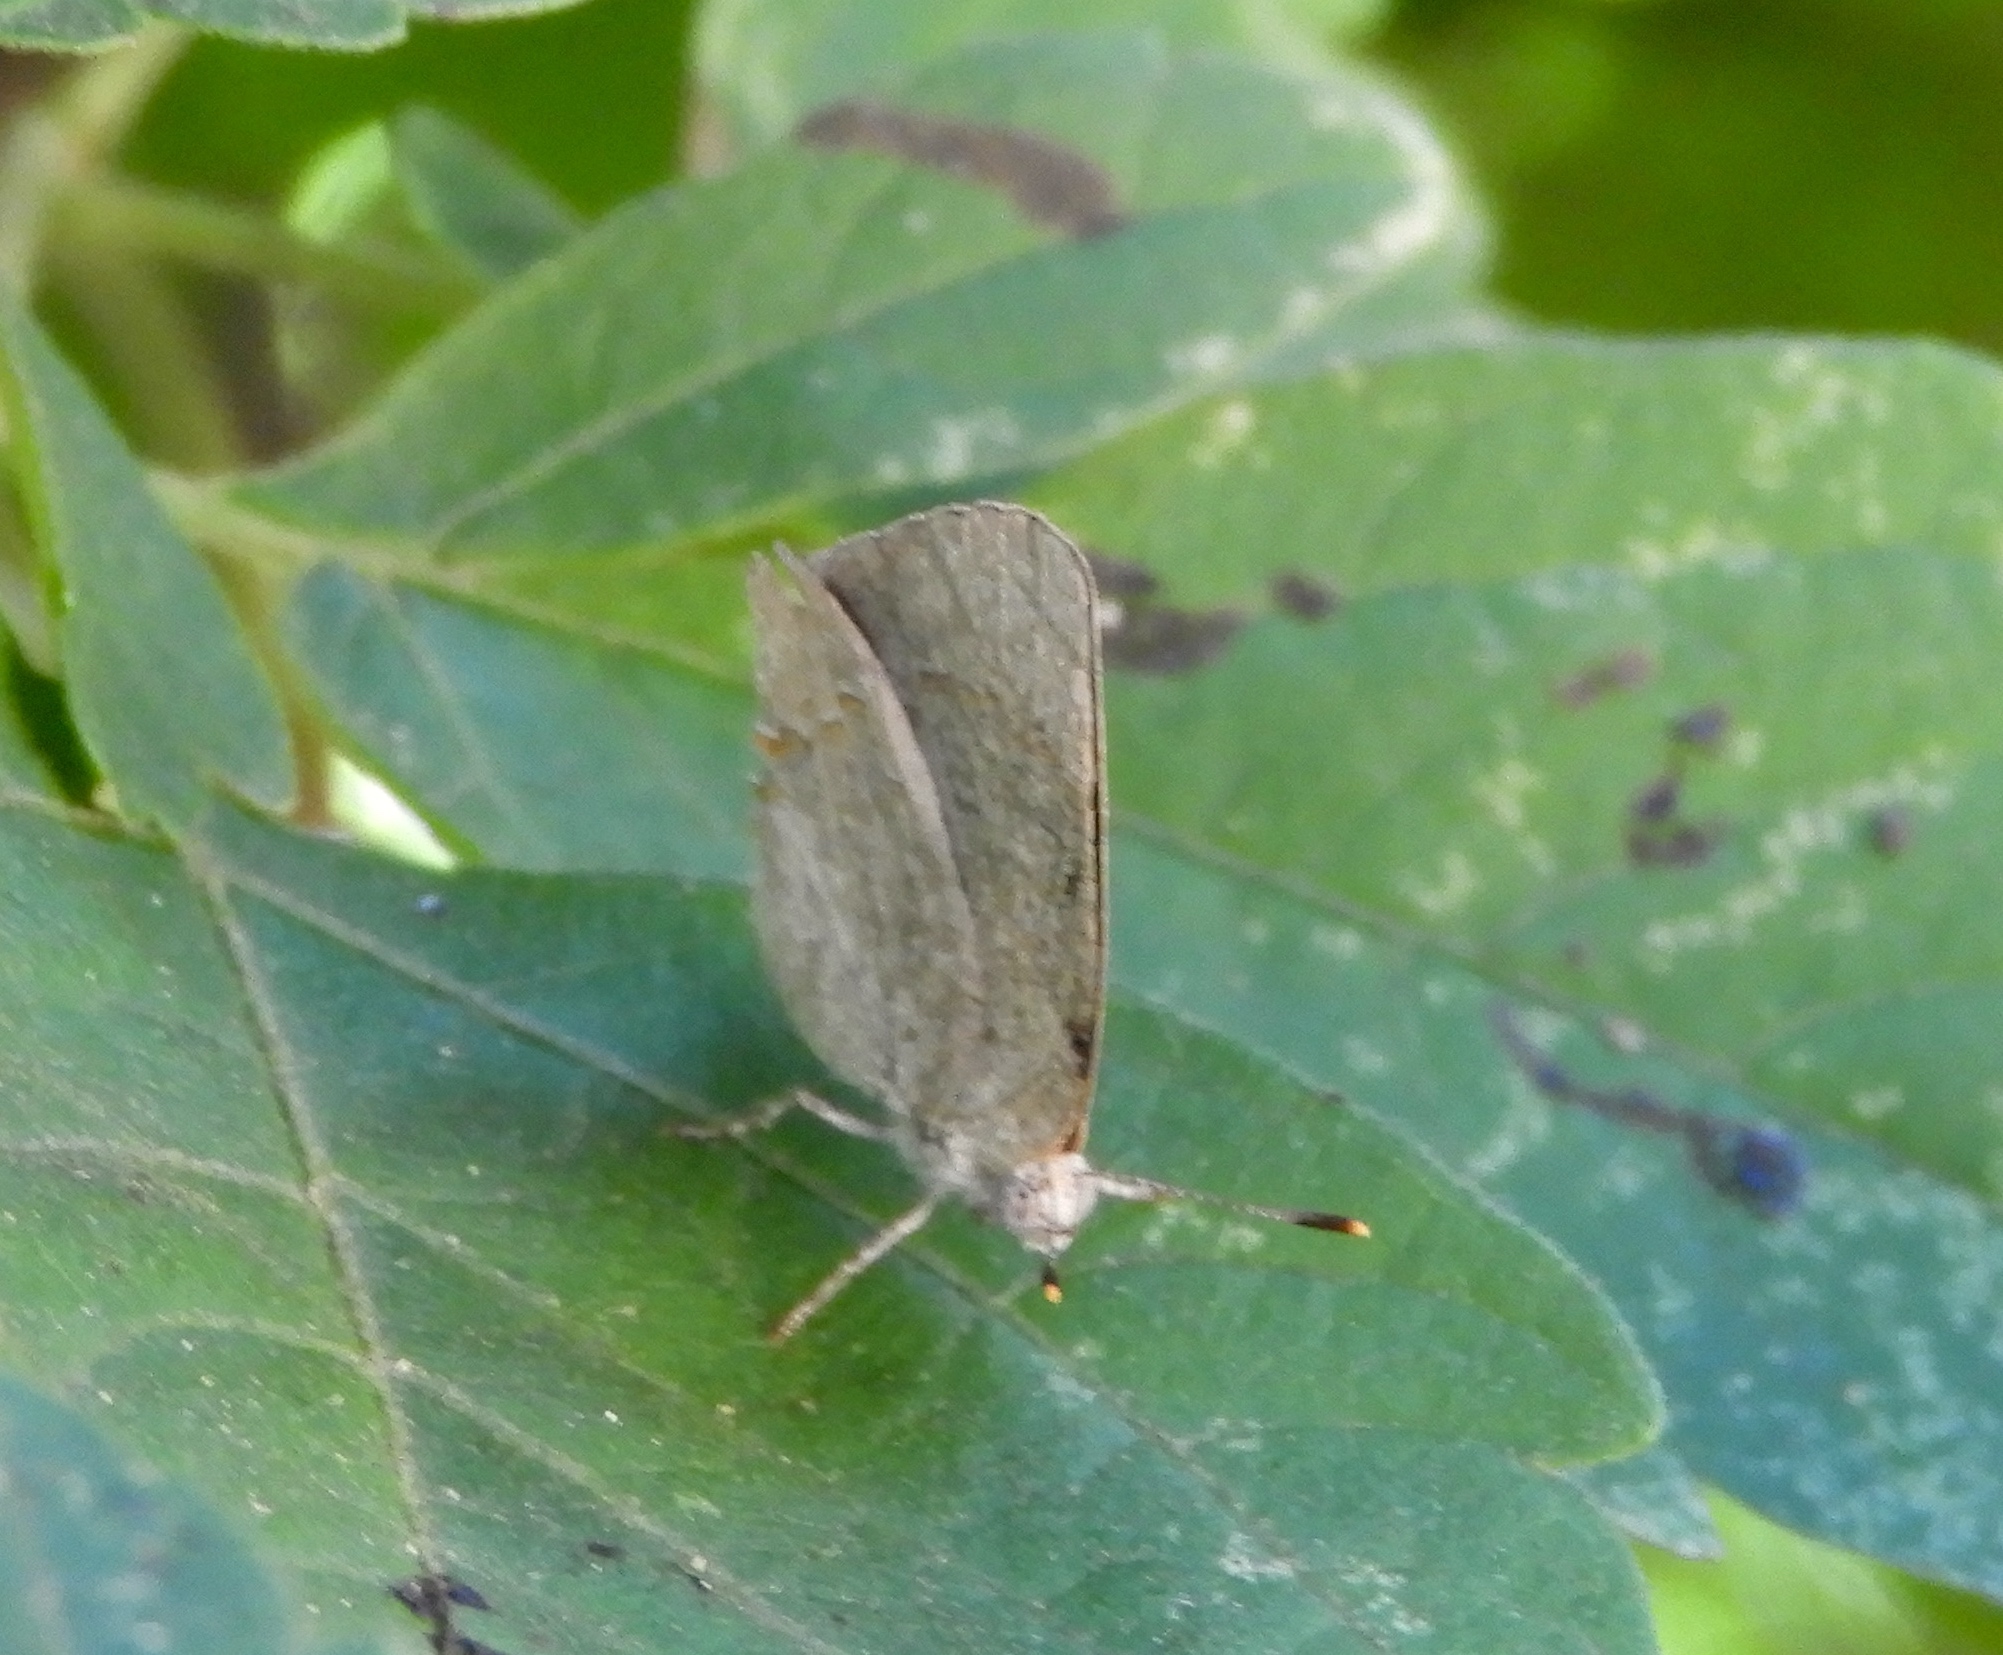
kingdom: Animalia
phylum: Arthropoda
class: Insecta
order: Lepidoptera
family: Lycaenidae
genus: Hypostrymon
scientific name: Hypostrymon critola
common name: Sonoran hairstreak
